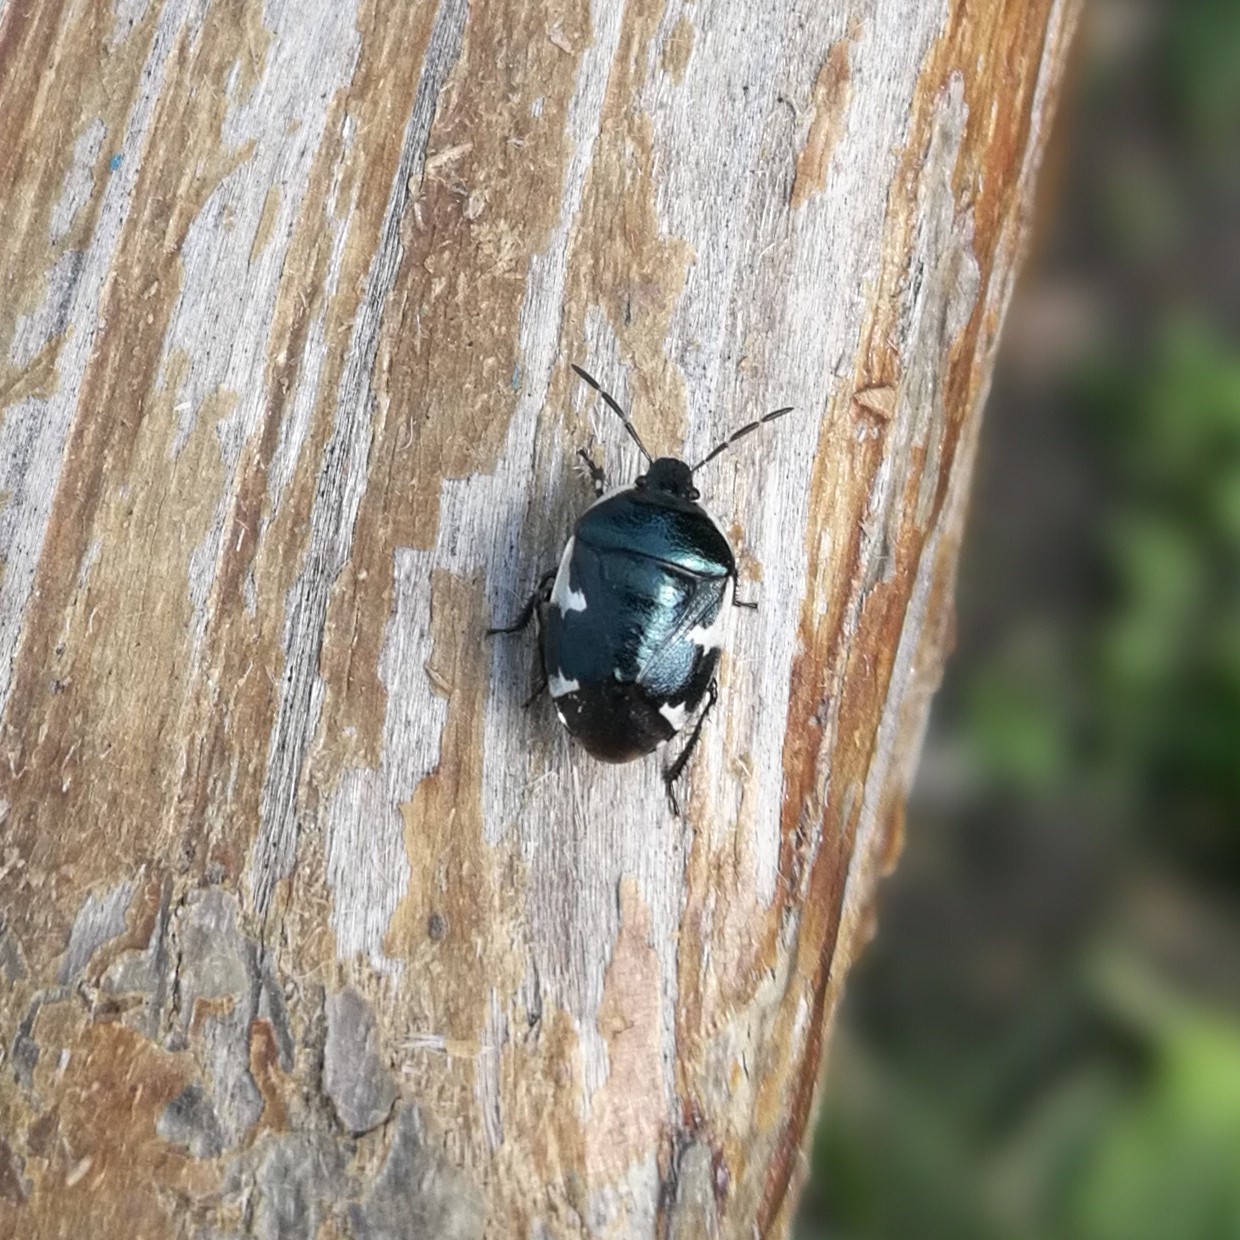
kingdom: Animalia
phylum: Arthropoda
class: Insecta
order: Hemiptera
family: Cydnidae
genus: Tritomegas
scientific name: Tritomegas sexmaculatus
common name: Rambur's pied shieldbug
